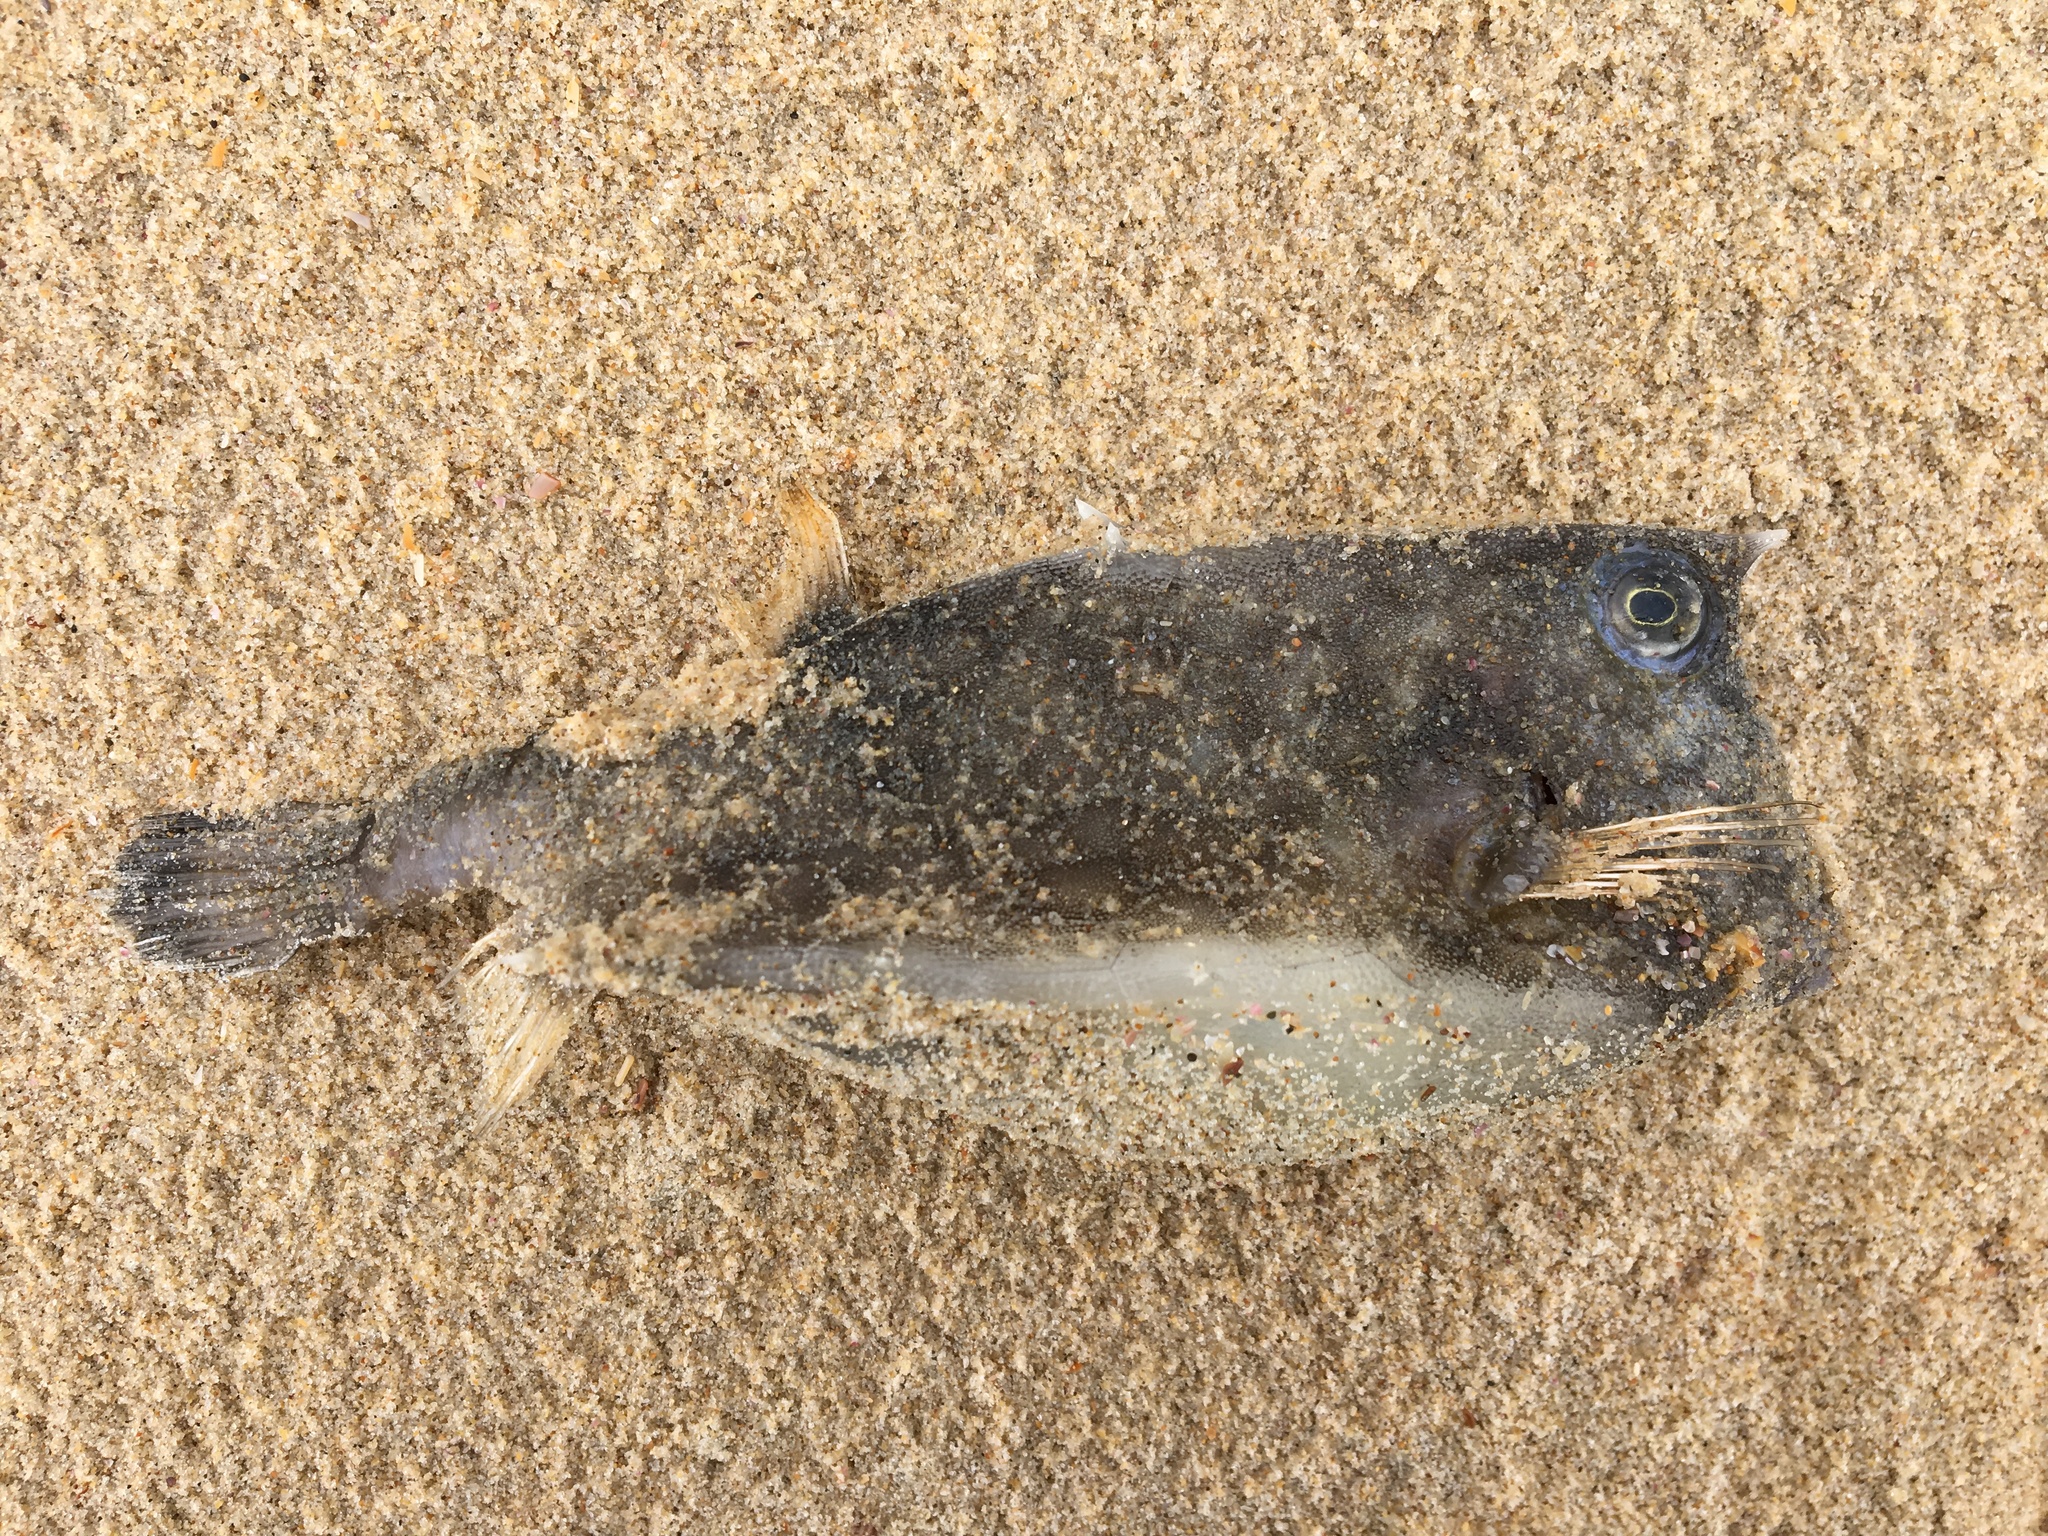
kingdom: Animalia
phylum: Chordata
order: Tetraodontiformes
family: Ostraciidae
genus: Lactoria
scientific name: Lactoria diaphana
